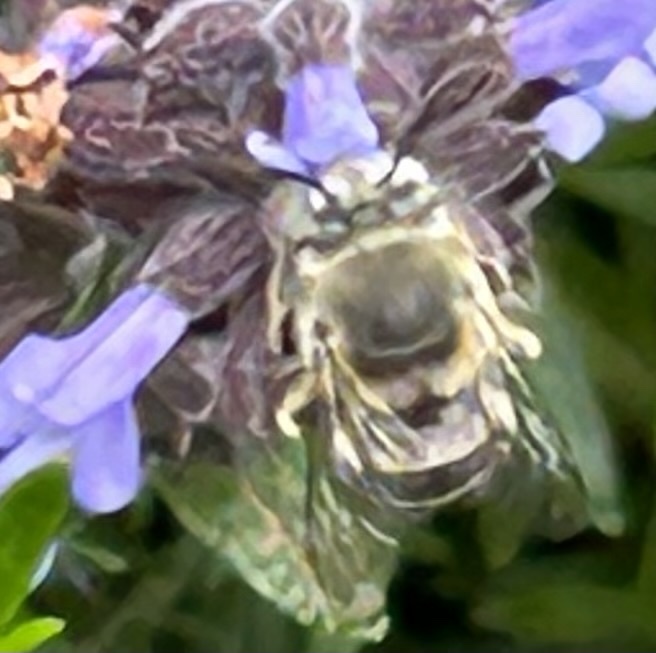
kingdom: Animalia
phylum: Arthropoda
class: Insecta
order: Hymenoptera
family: Apidae
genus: Anthophora
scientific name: Anthophora californica
